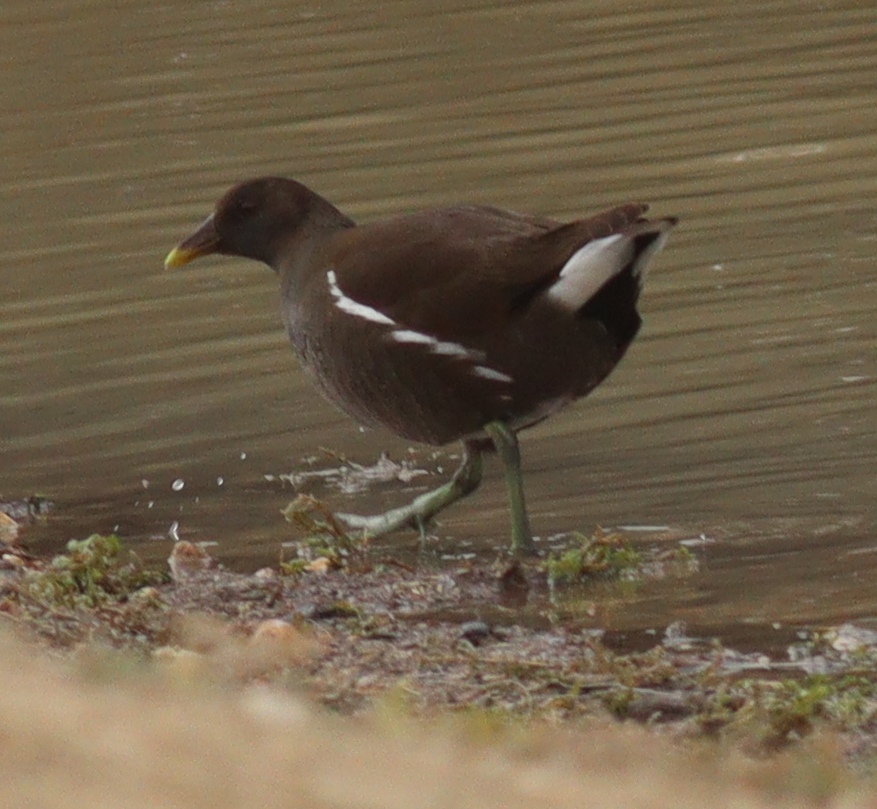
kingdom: Animalia
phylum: Chordata
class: Aves
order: Gruiformes
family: Rallidae
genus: Gallinula
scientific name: Gallinula chloropus
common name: Common moorhen
